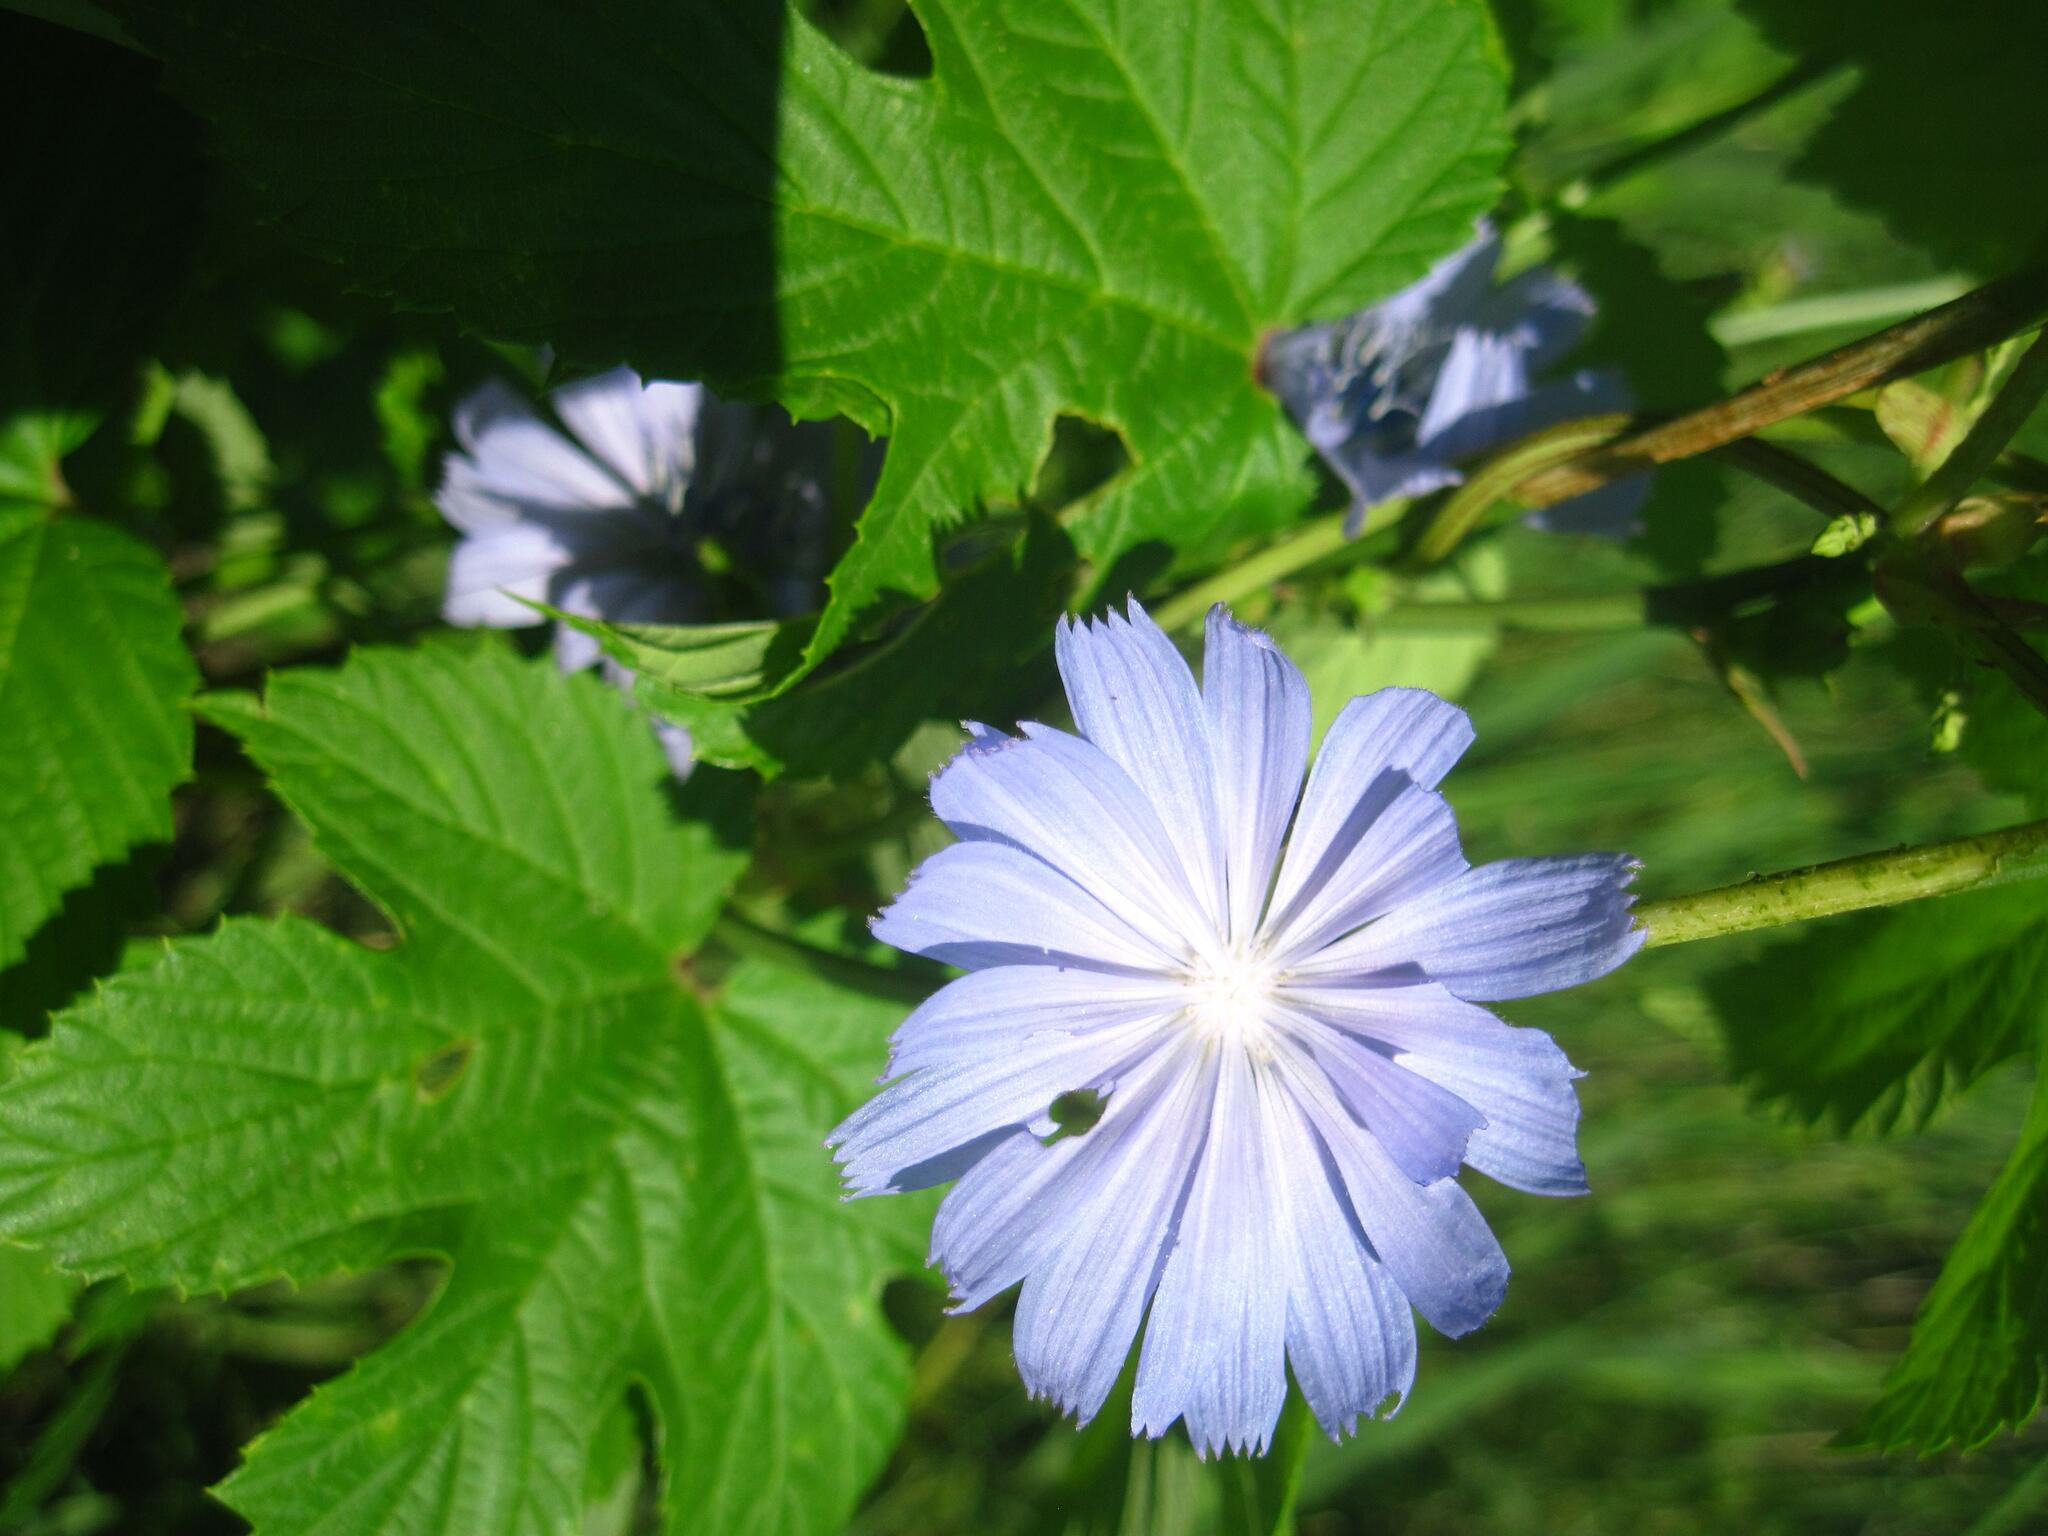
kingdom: Plantae
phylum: Tracheophyta
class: Magnoliopsida
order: Asterales
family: Asteraceae
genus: Cichorium
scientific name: Cichorium intybus
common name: Chicory
